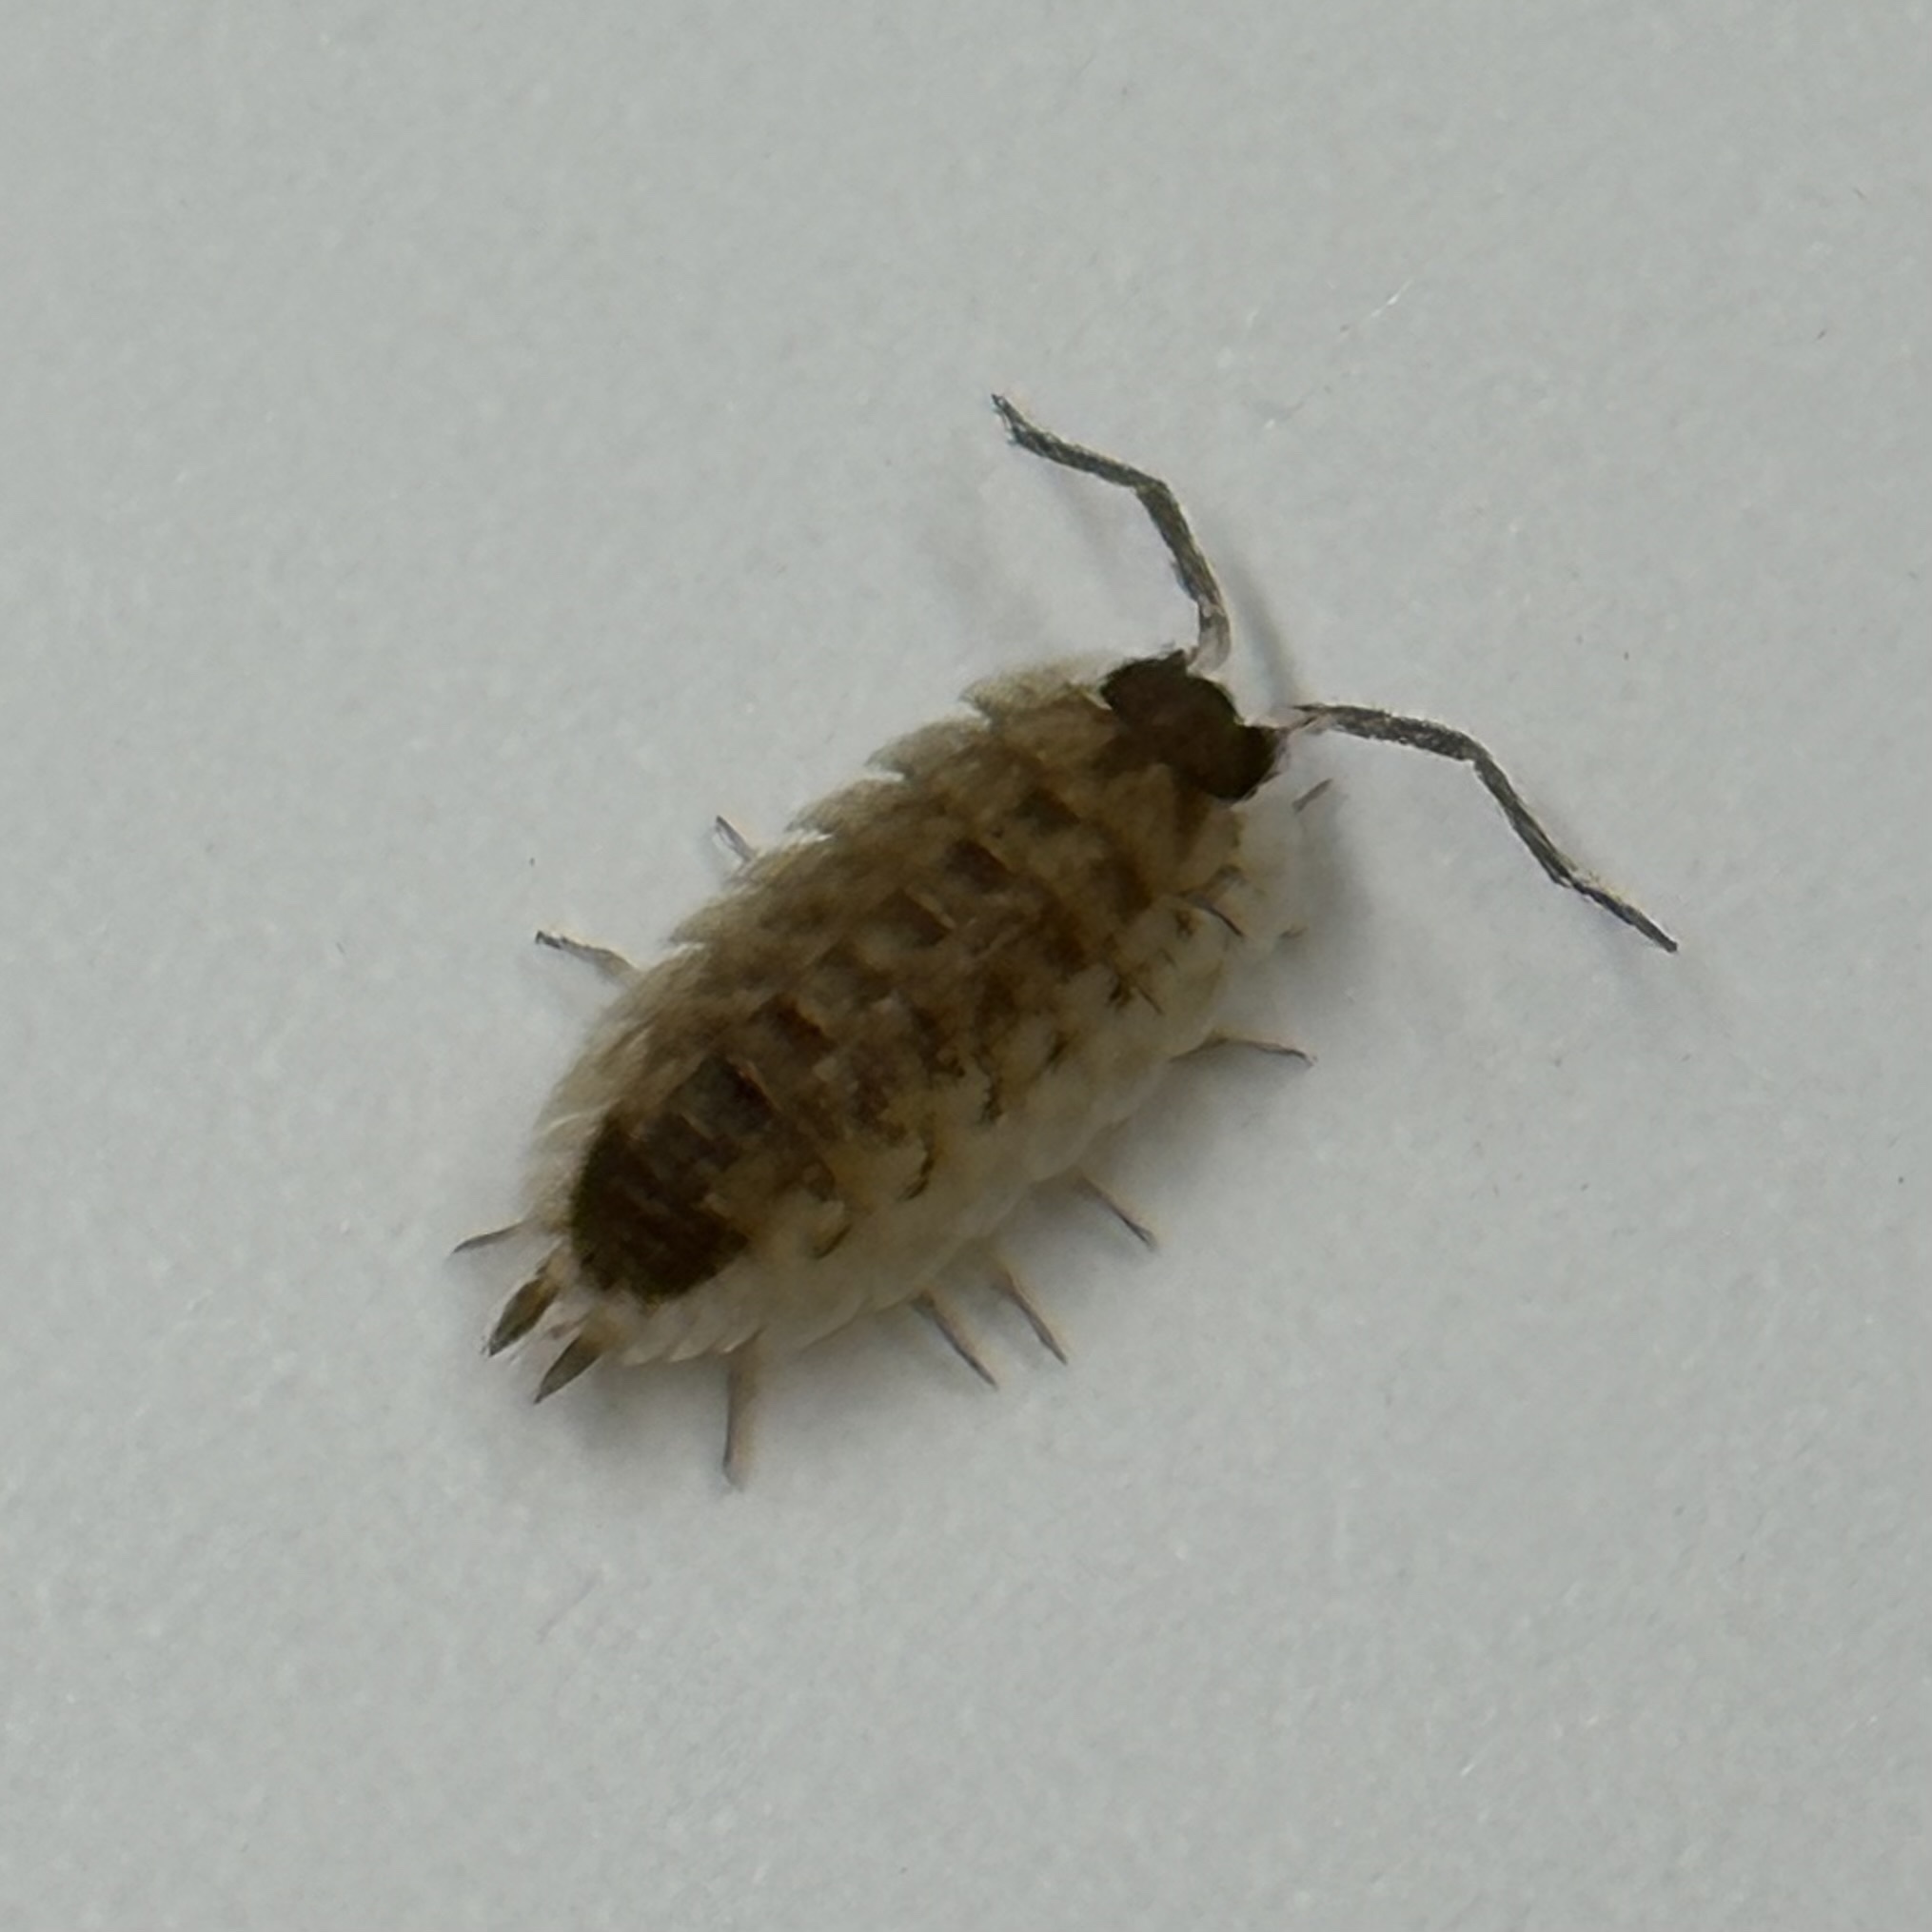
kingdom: Animalia
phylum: Arthropoda
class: Malacostraca
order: Isopoda
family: Porcellionidae
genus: Porcellio
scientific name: Porcellio spinicornis
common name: Painted woodlouse
